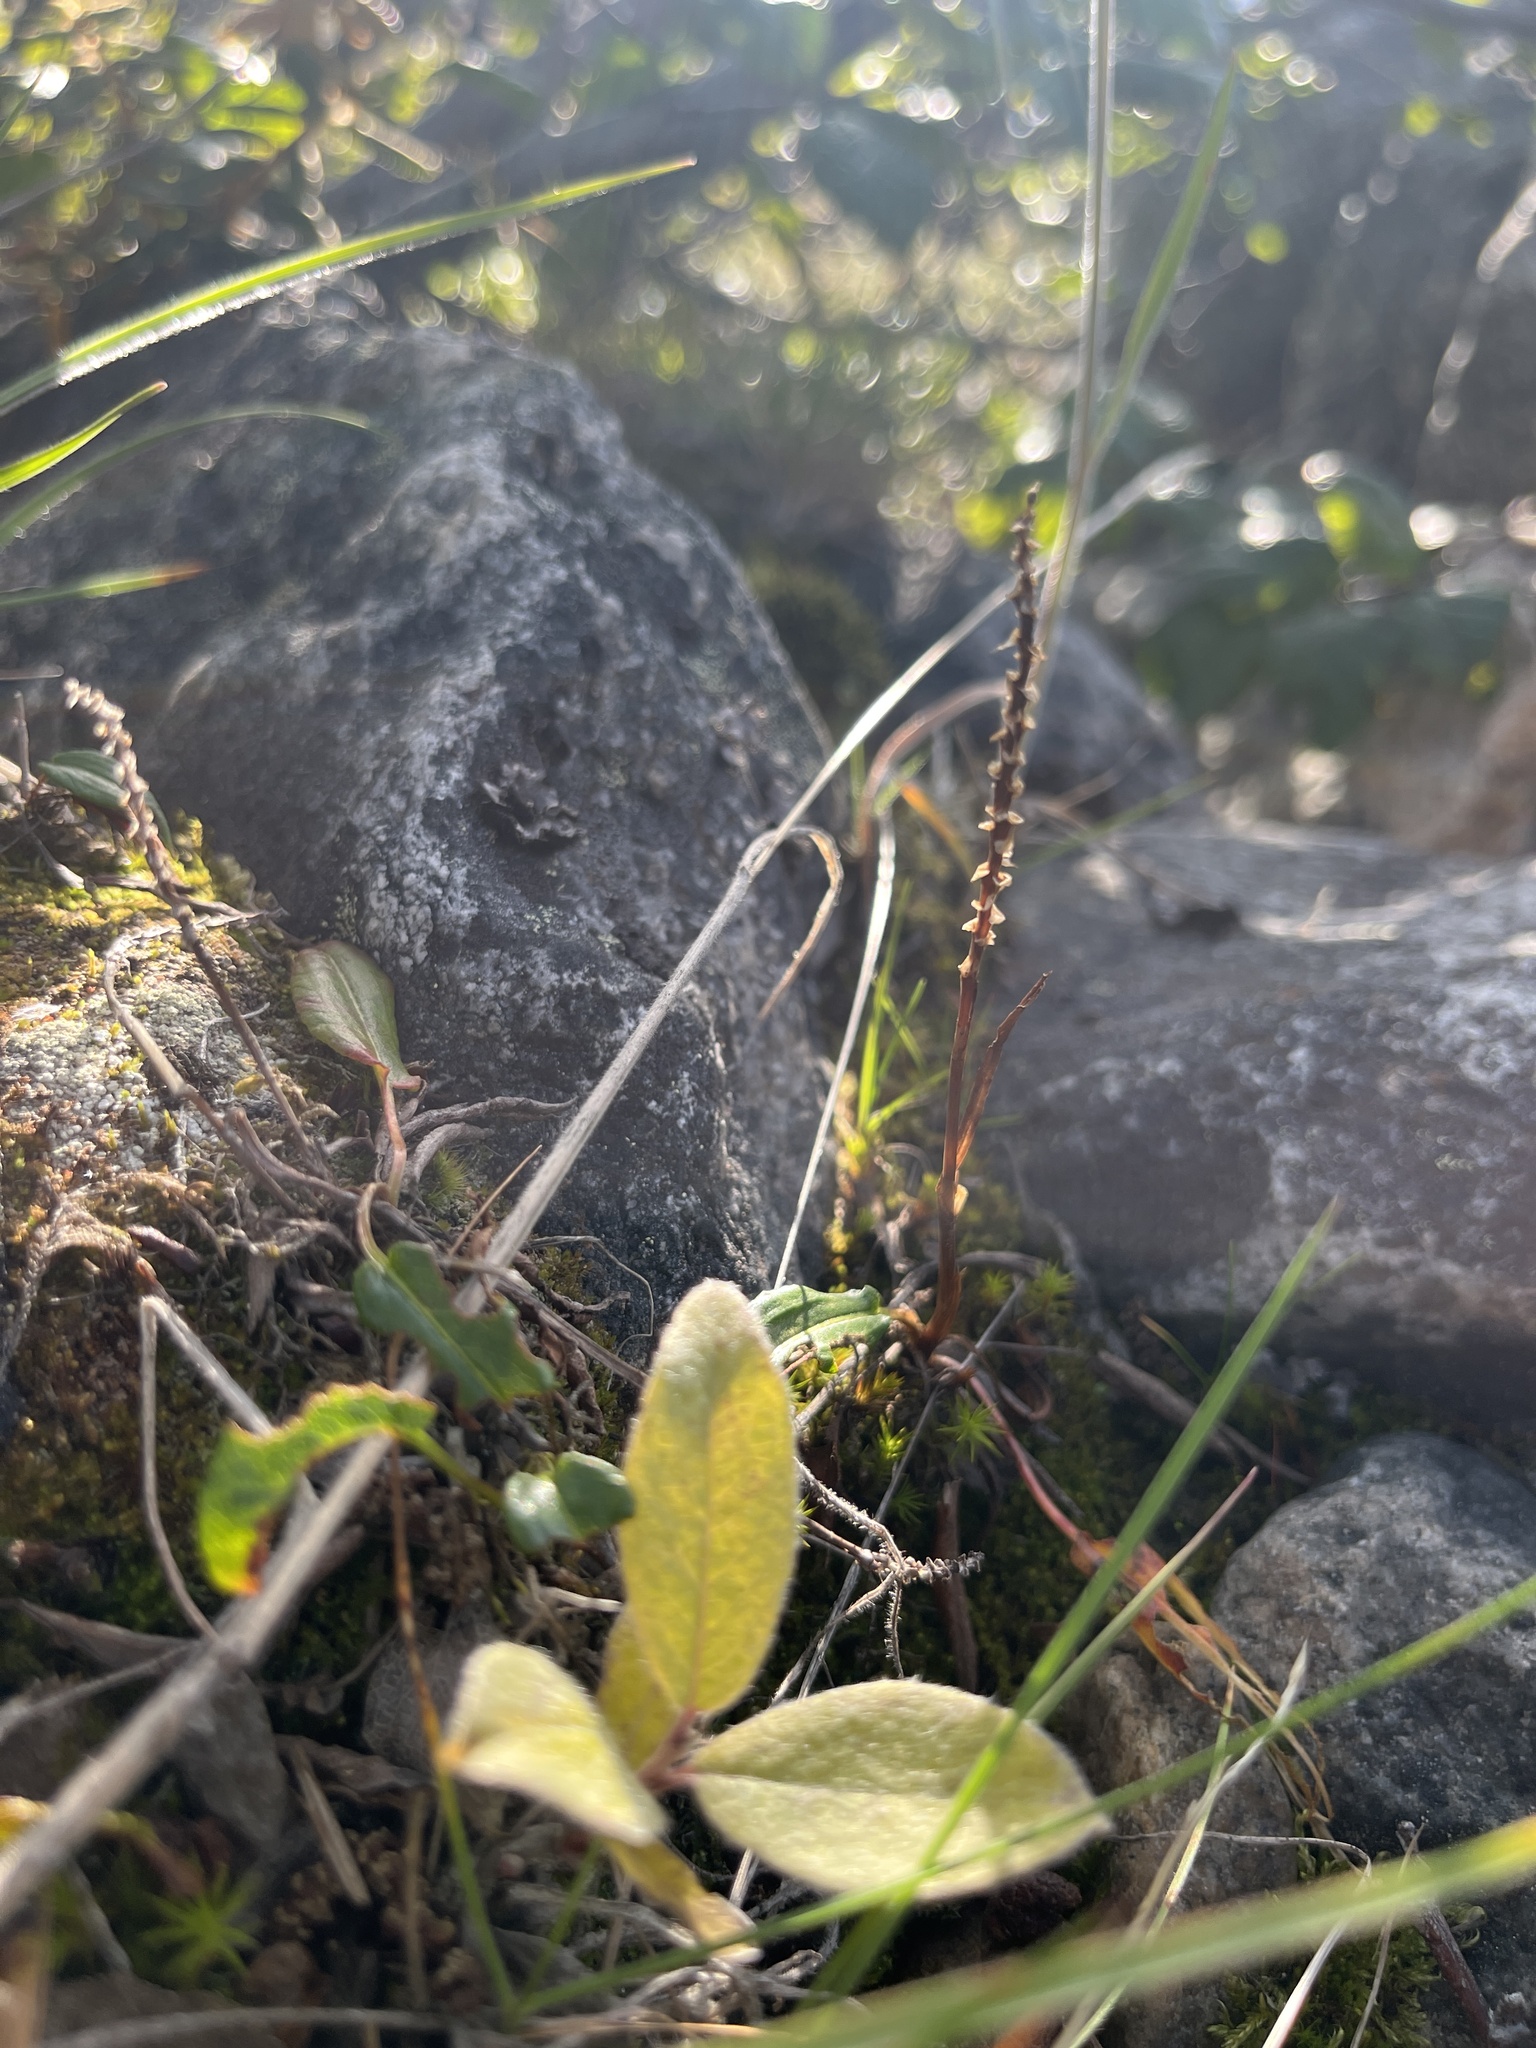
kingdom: Plantae
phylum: Tracheophyta
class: Magnoliopsida
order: Caryophyllales
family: Polygonaceae
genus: Bistorta
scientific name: Bistorta vivipara
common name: Alpine bistort
